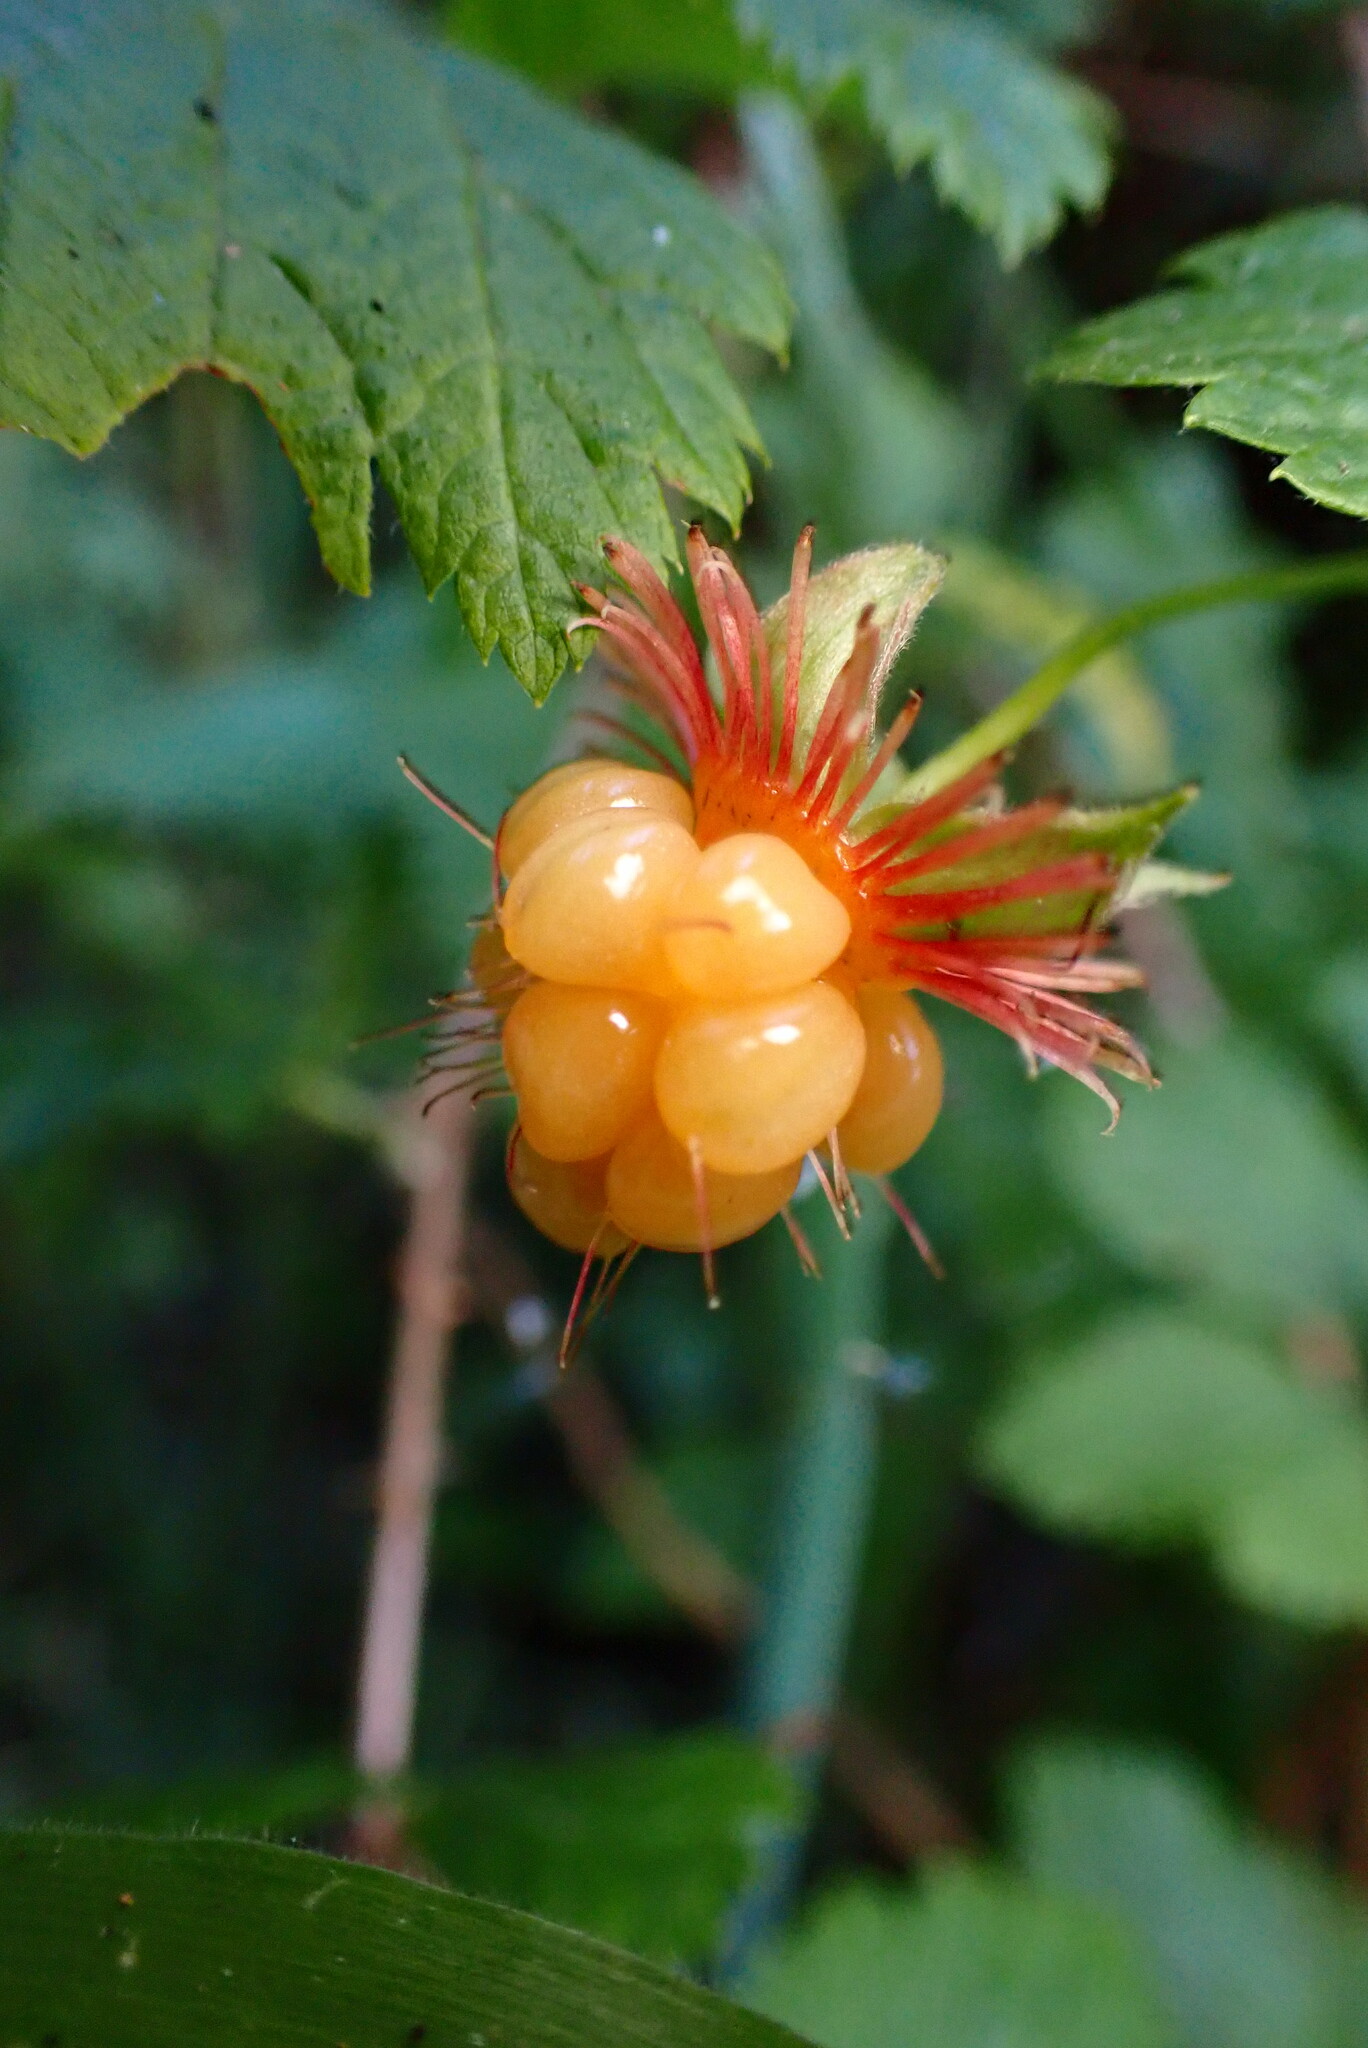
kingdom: Plantae
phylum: Tracheophyta
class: Magnoliopsida
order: Rosales
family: Rosaceae
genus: Rubus
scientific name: Rubus spectabilis
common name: Salmonberry
